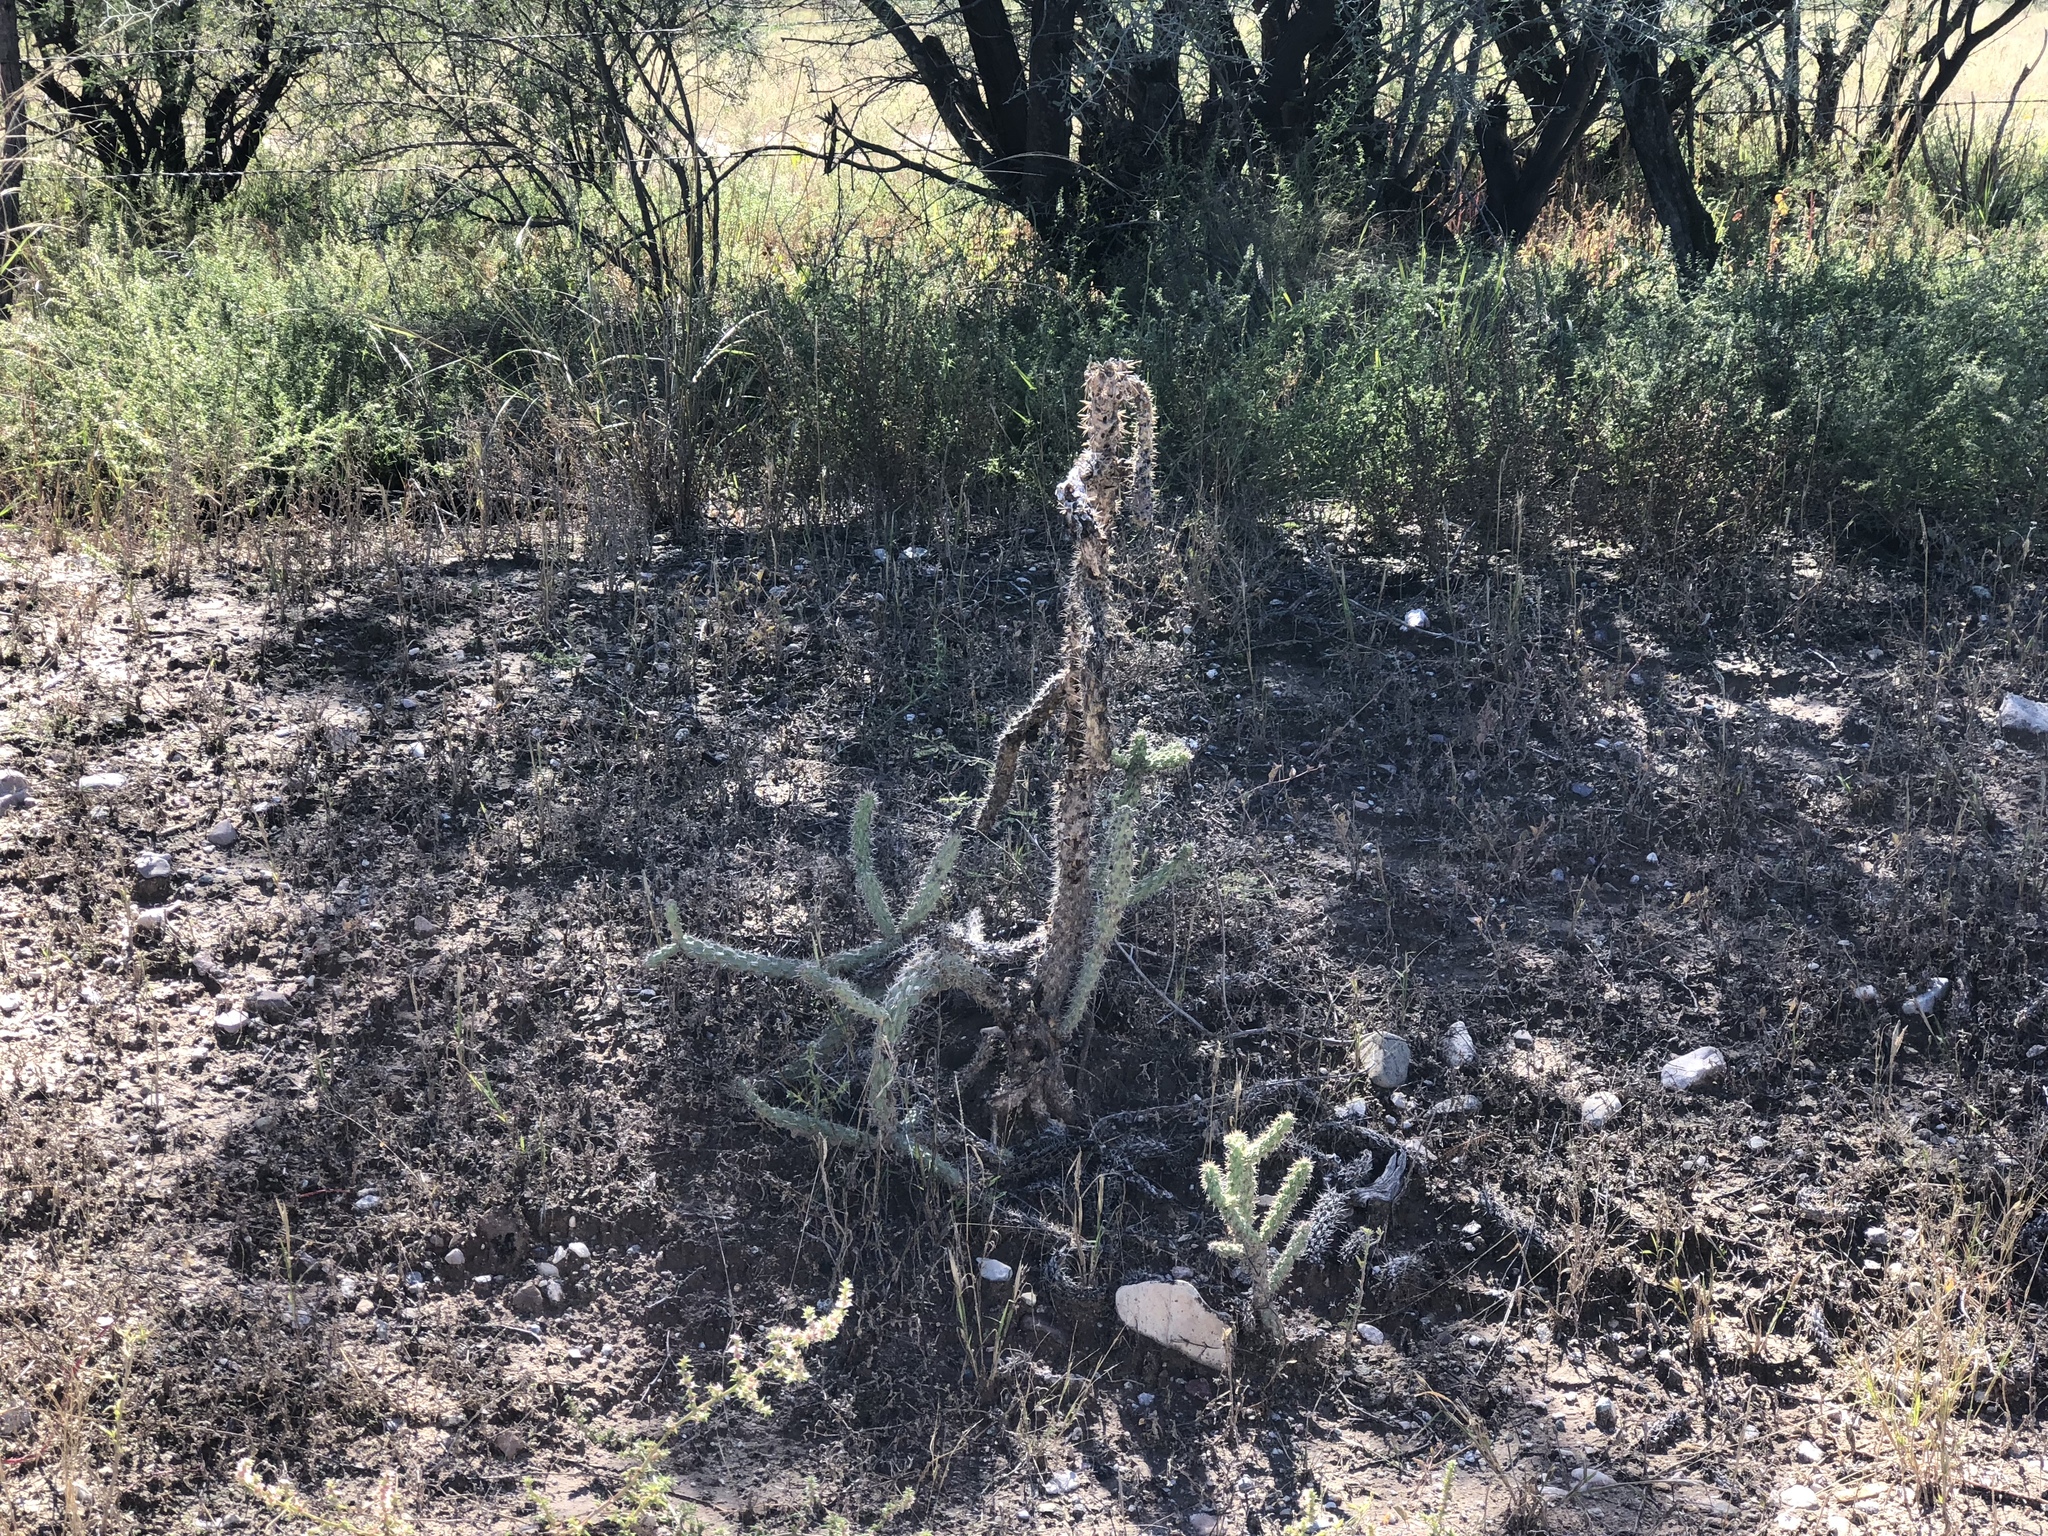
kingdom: Plantae
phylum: Tracheophyta
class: Magnoliopsida
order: Caryophyllales
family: Cactaceae
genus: Cylindropuntia
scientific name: Cylindropuntia imbricata
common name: Candelabrum cactus
